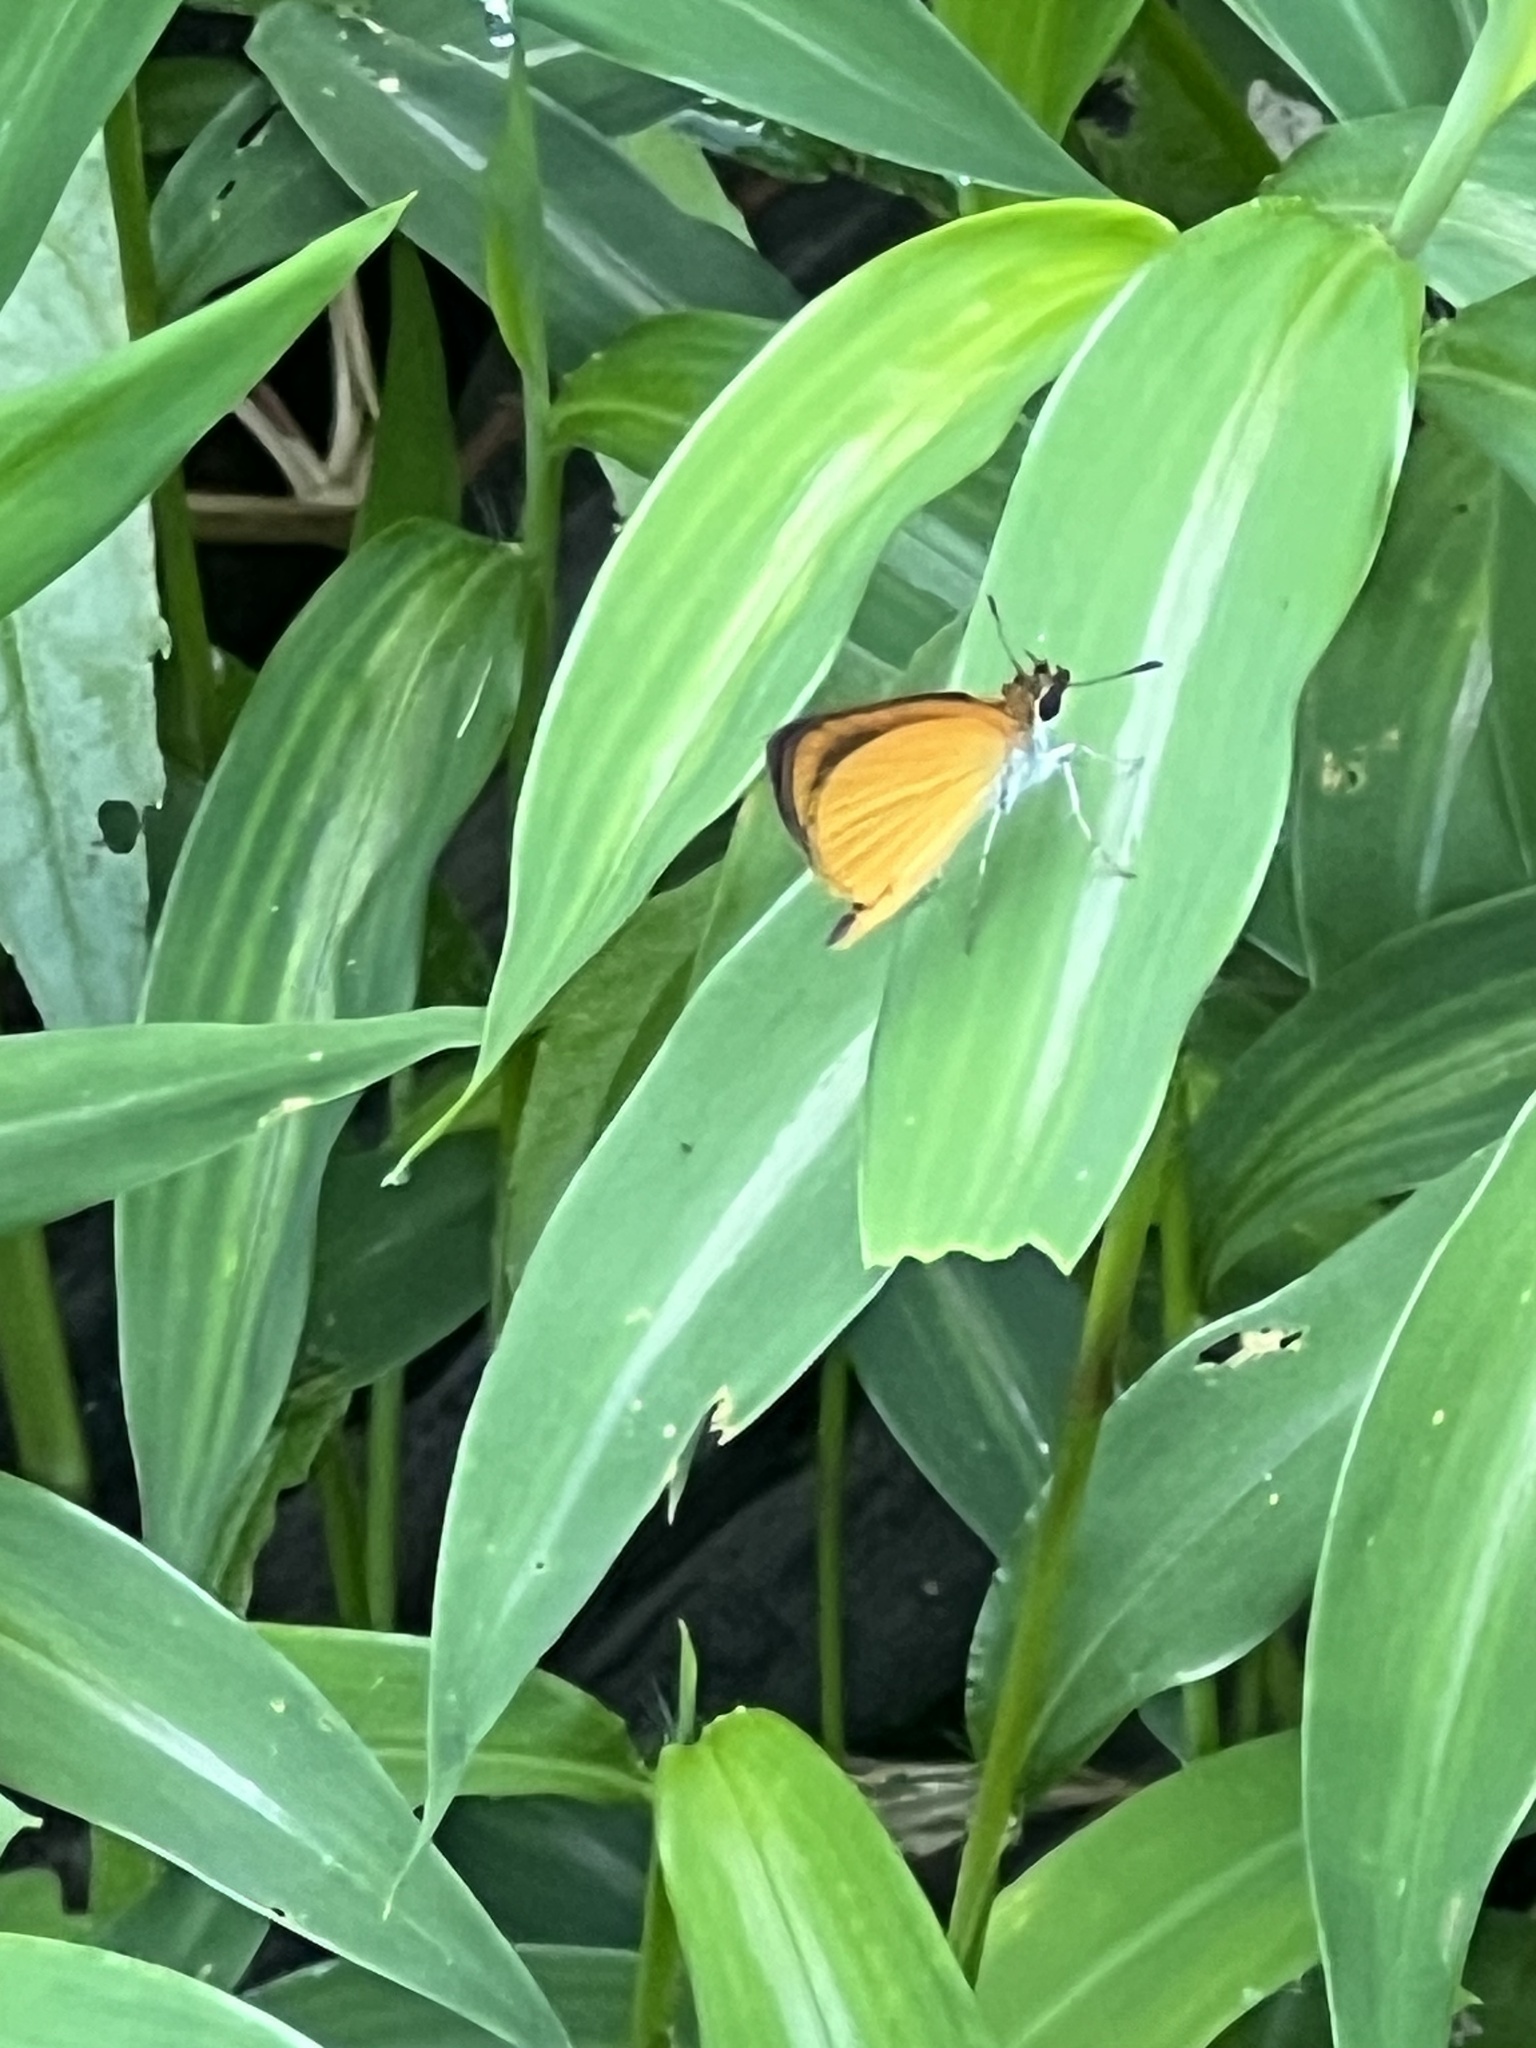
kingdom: Animalia
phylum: Arthropoda
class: Insecta
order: Lepidoptera
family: Hesperiidae
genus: Ancyloxypha
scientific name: Ancyloxypha numitor
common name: Least skipper
